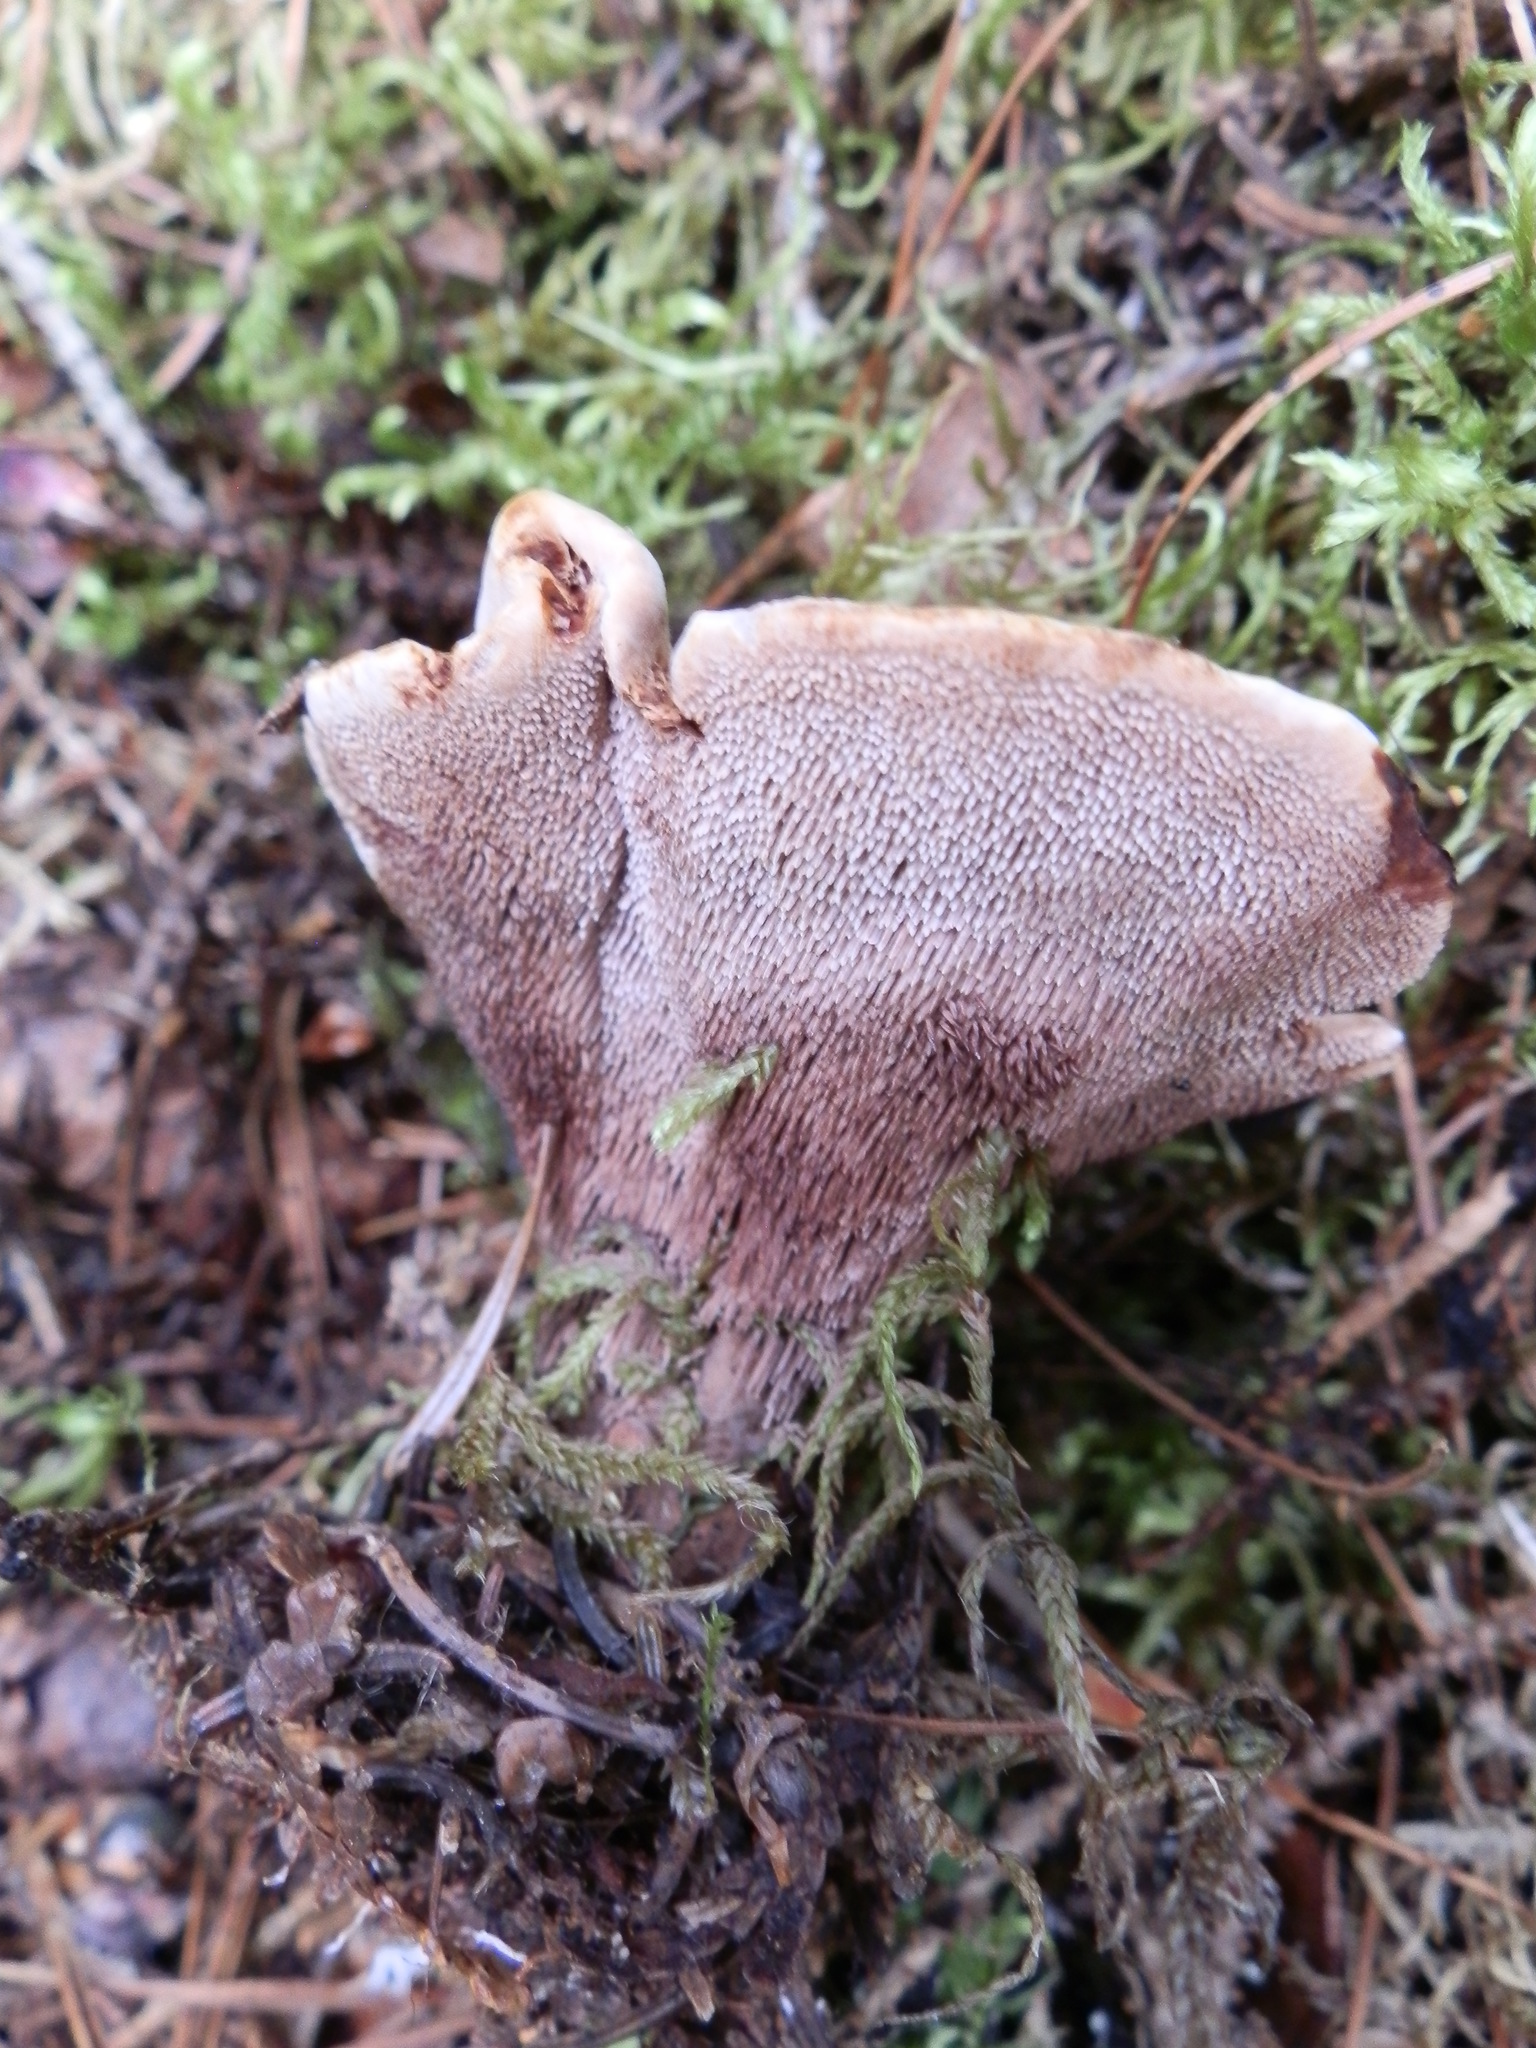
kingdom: Fungi
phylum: Basidiomycota
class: Agaricomycetes
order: Thelephorales
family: Bankeraceae
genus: Hydnellum
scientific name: Hydnellum concrescens
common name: Zoned tooth
